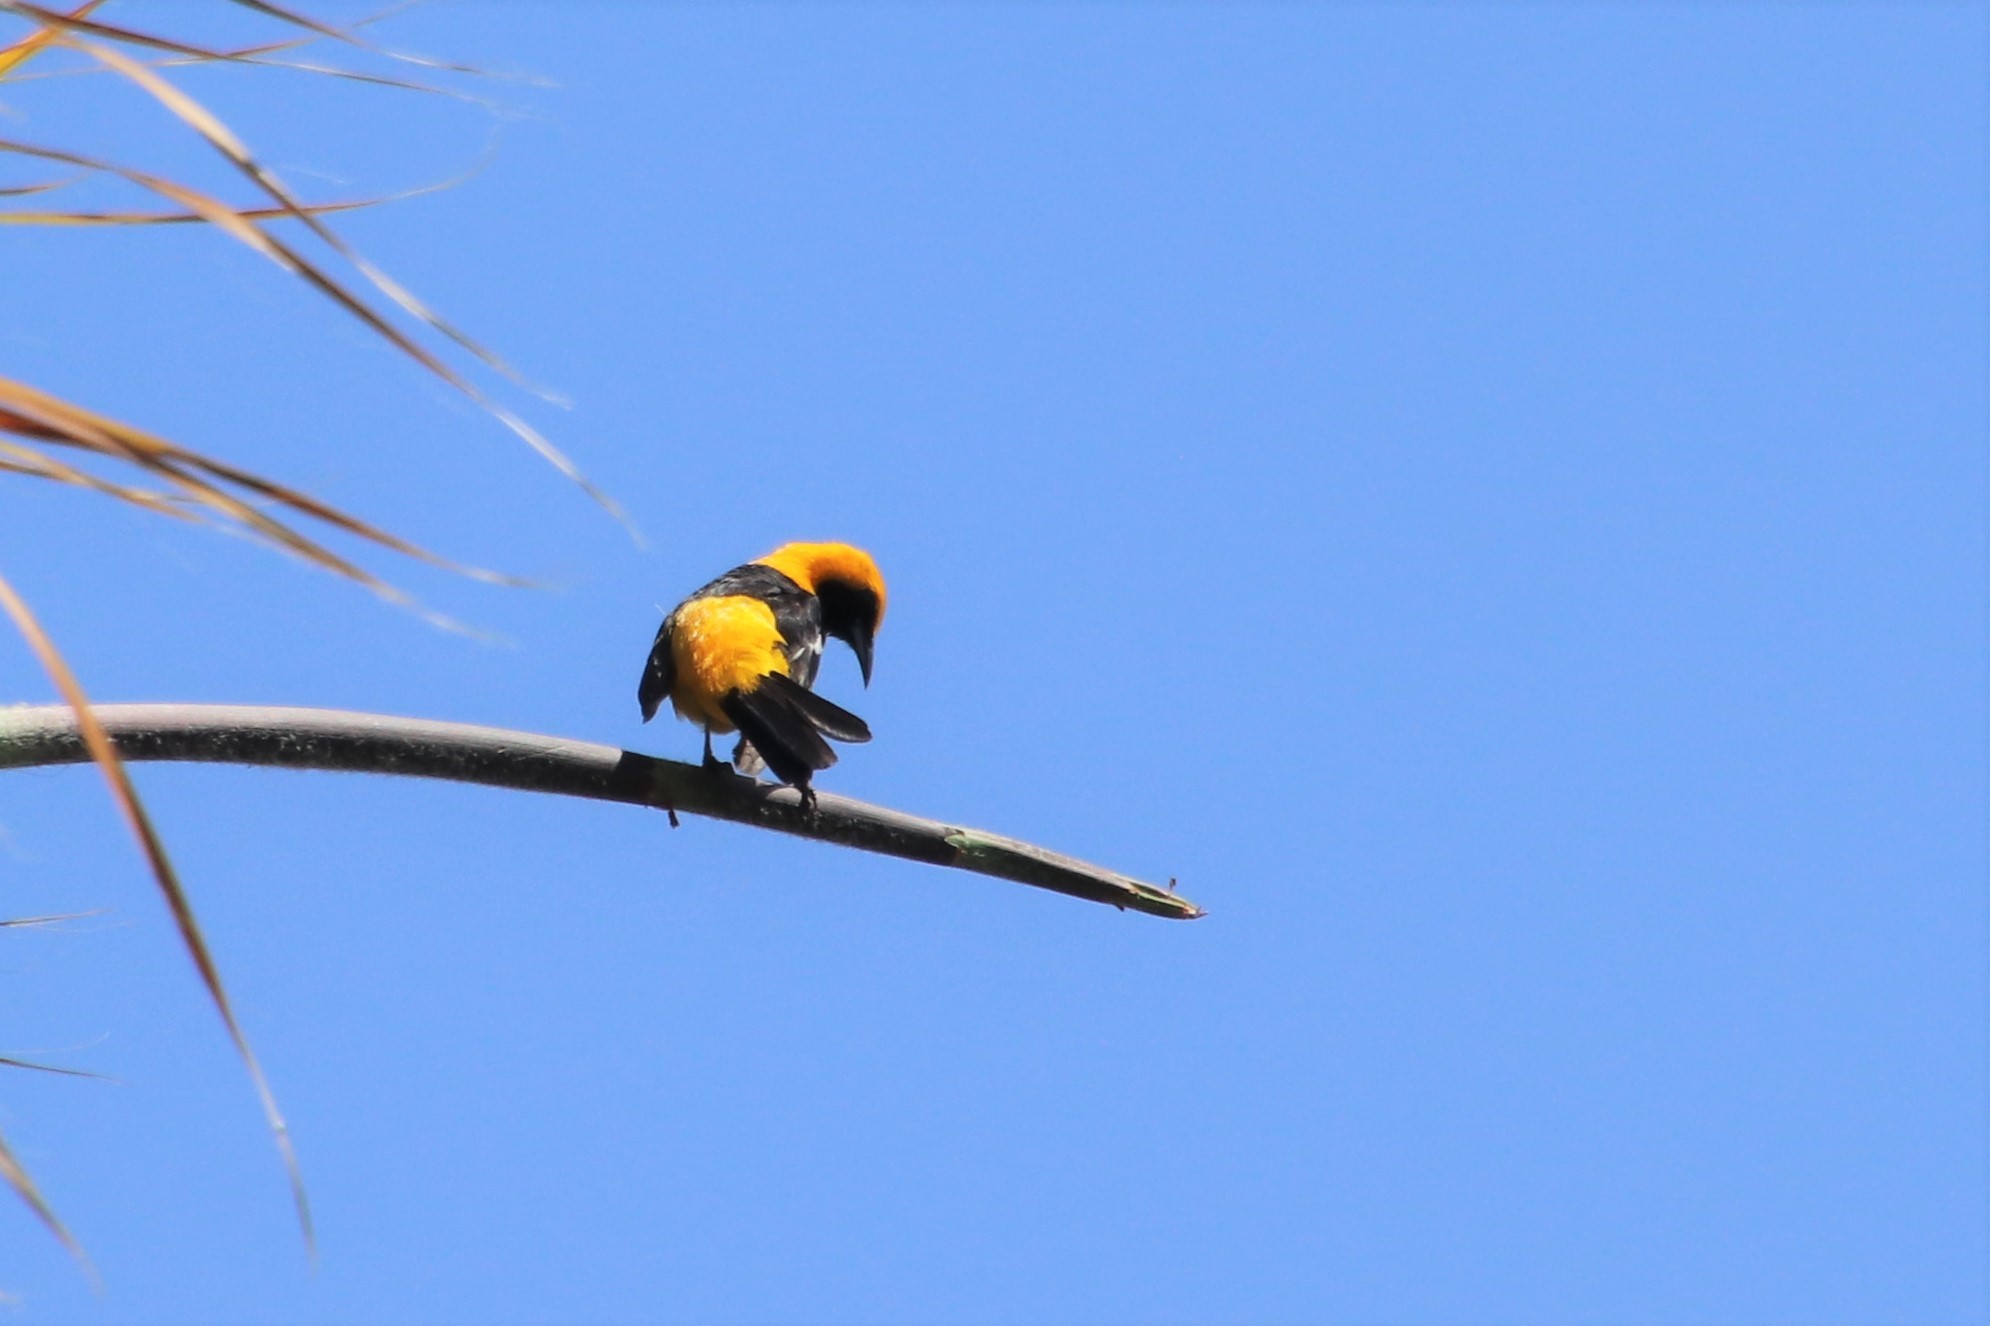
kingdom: Animalia
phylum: Chordata
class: Aves
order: Passeriformes
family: Icteridae
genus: Icterus
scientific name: Icterus cucullatus
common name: Hooded oriole
